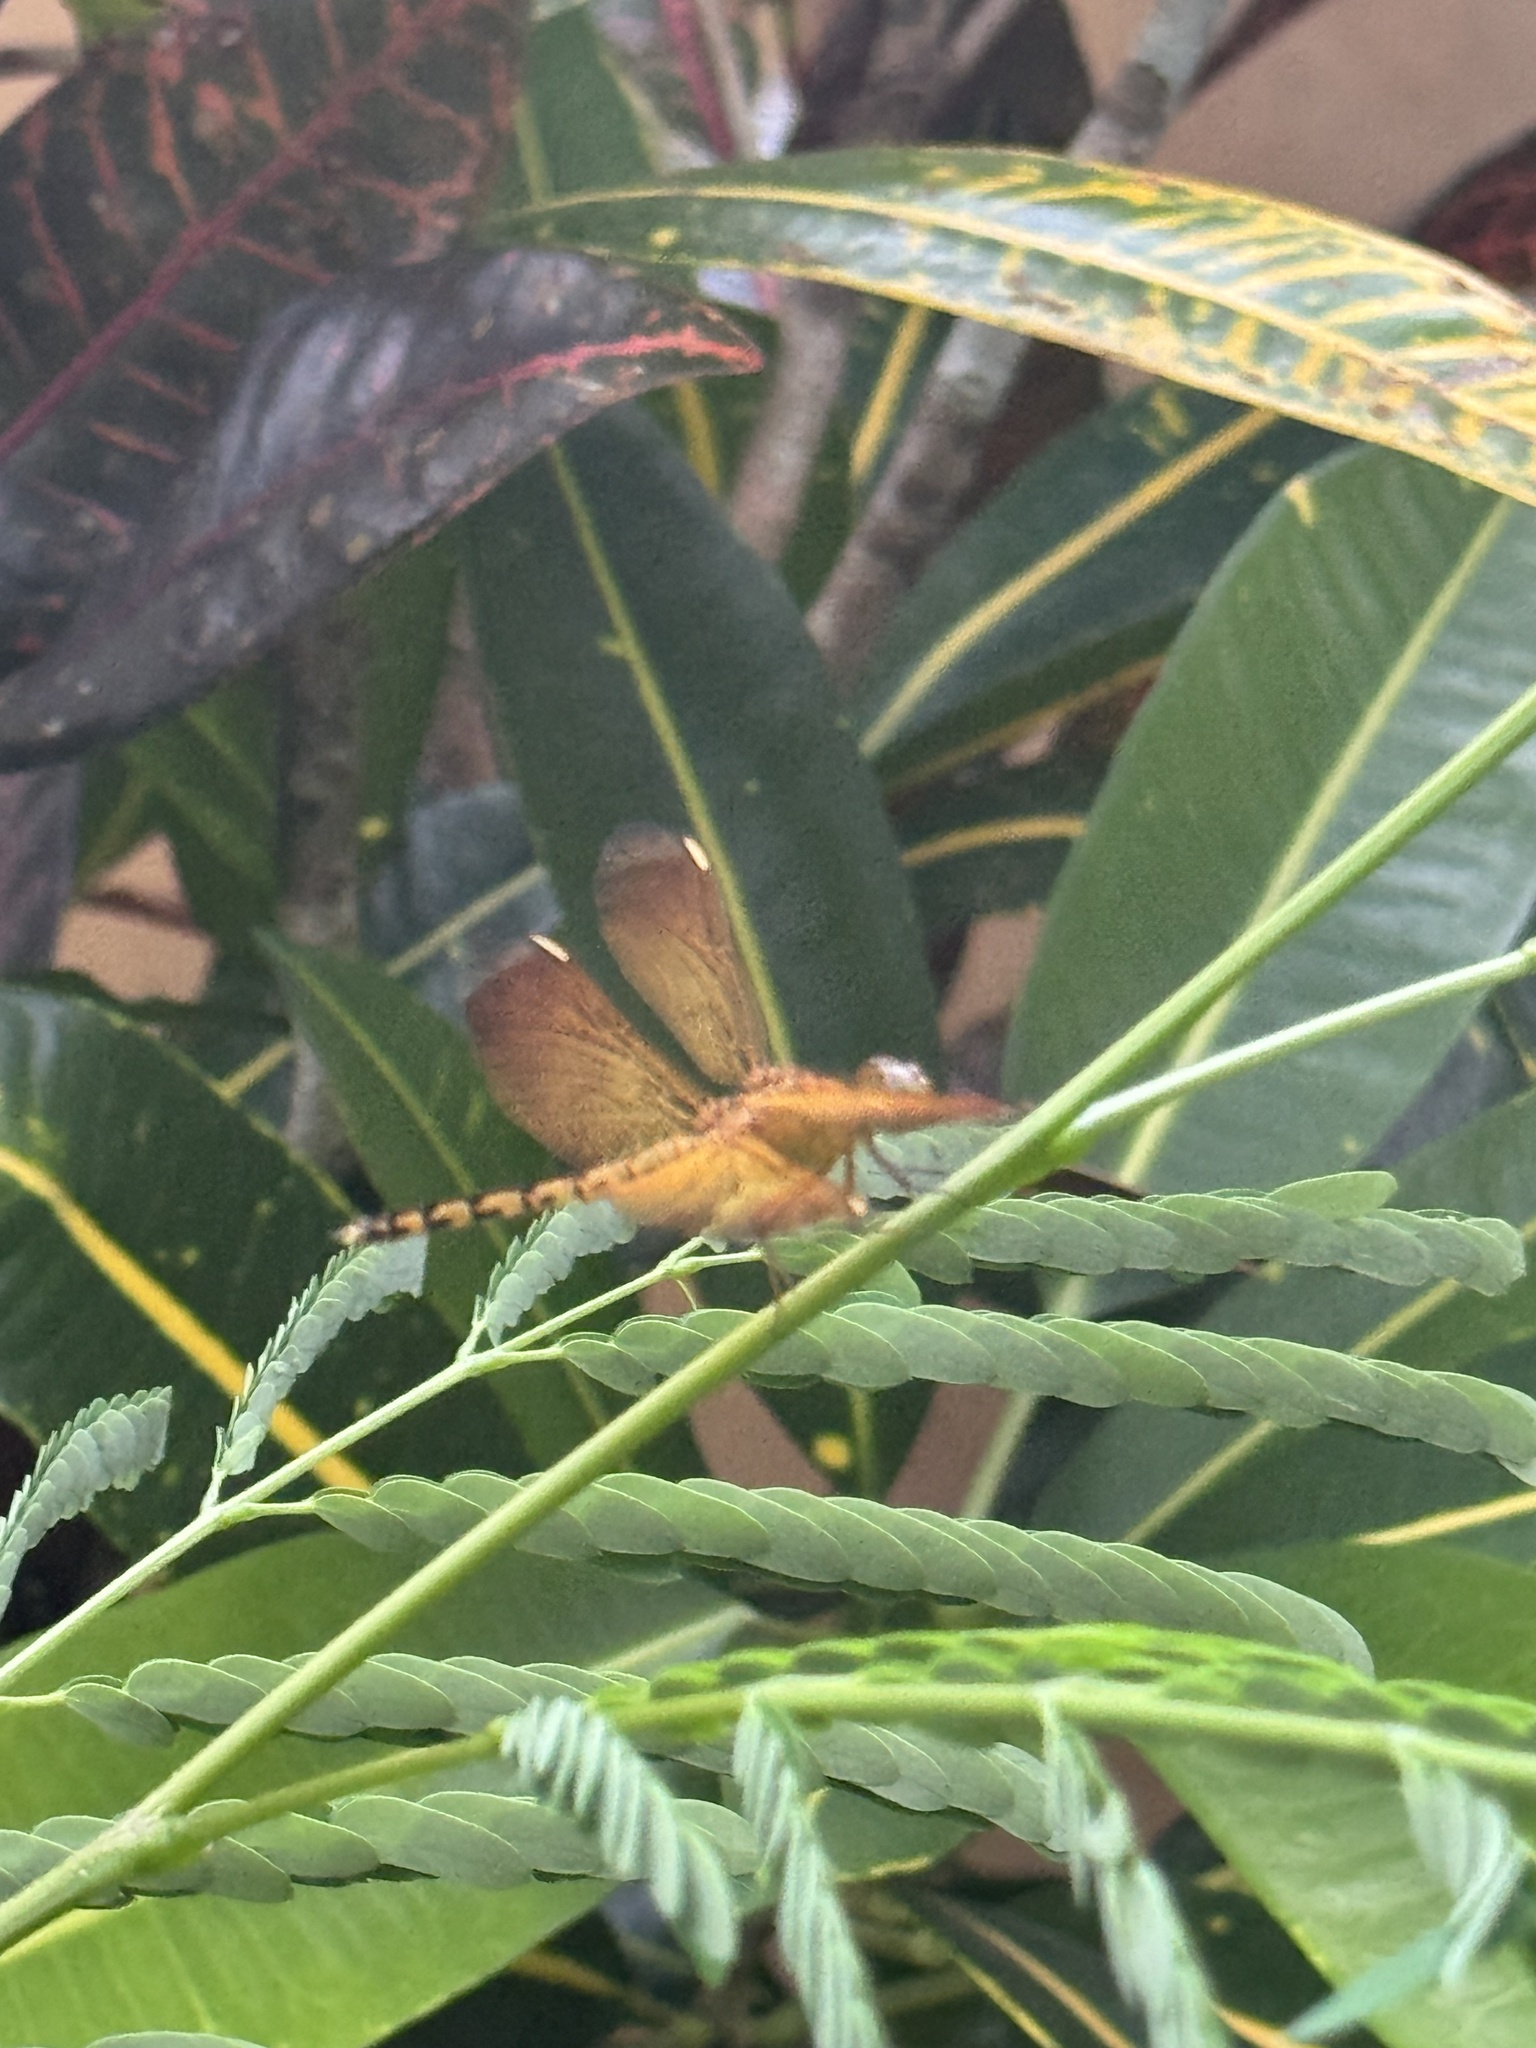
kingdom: Animalia
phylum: Arthropoda
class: Insecta
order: Odonata
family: Libellulidae
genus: Neurothemis
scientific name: Neurothemis terminata
